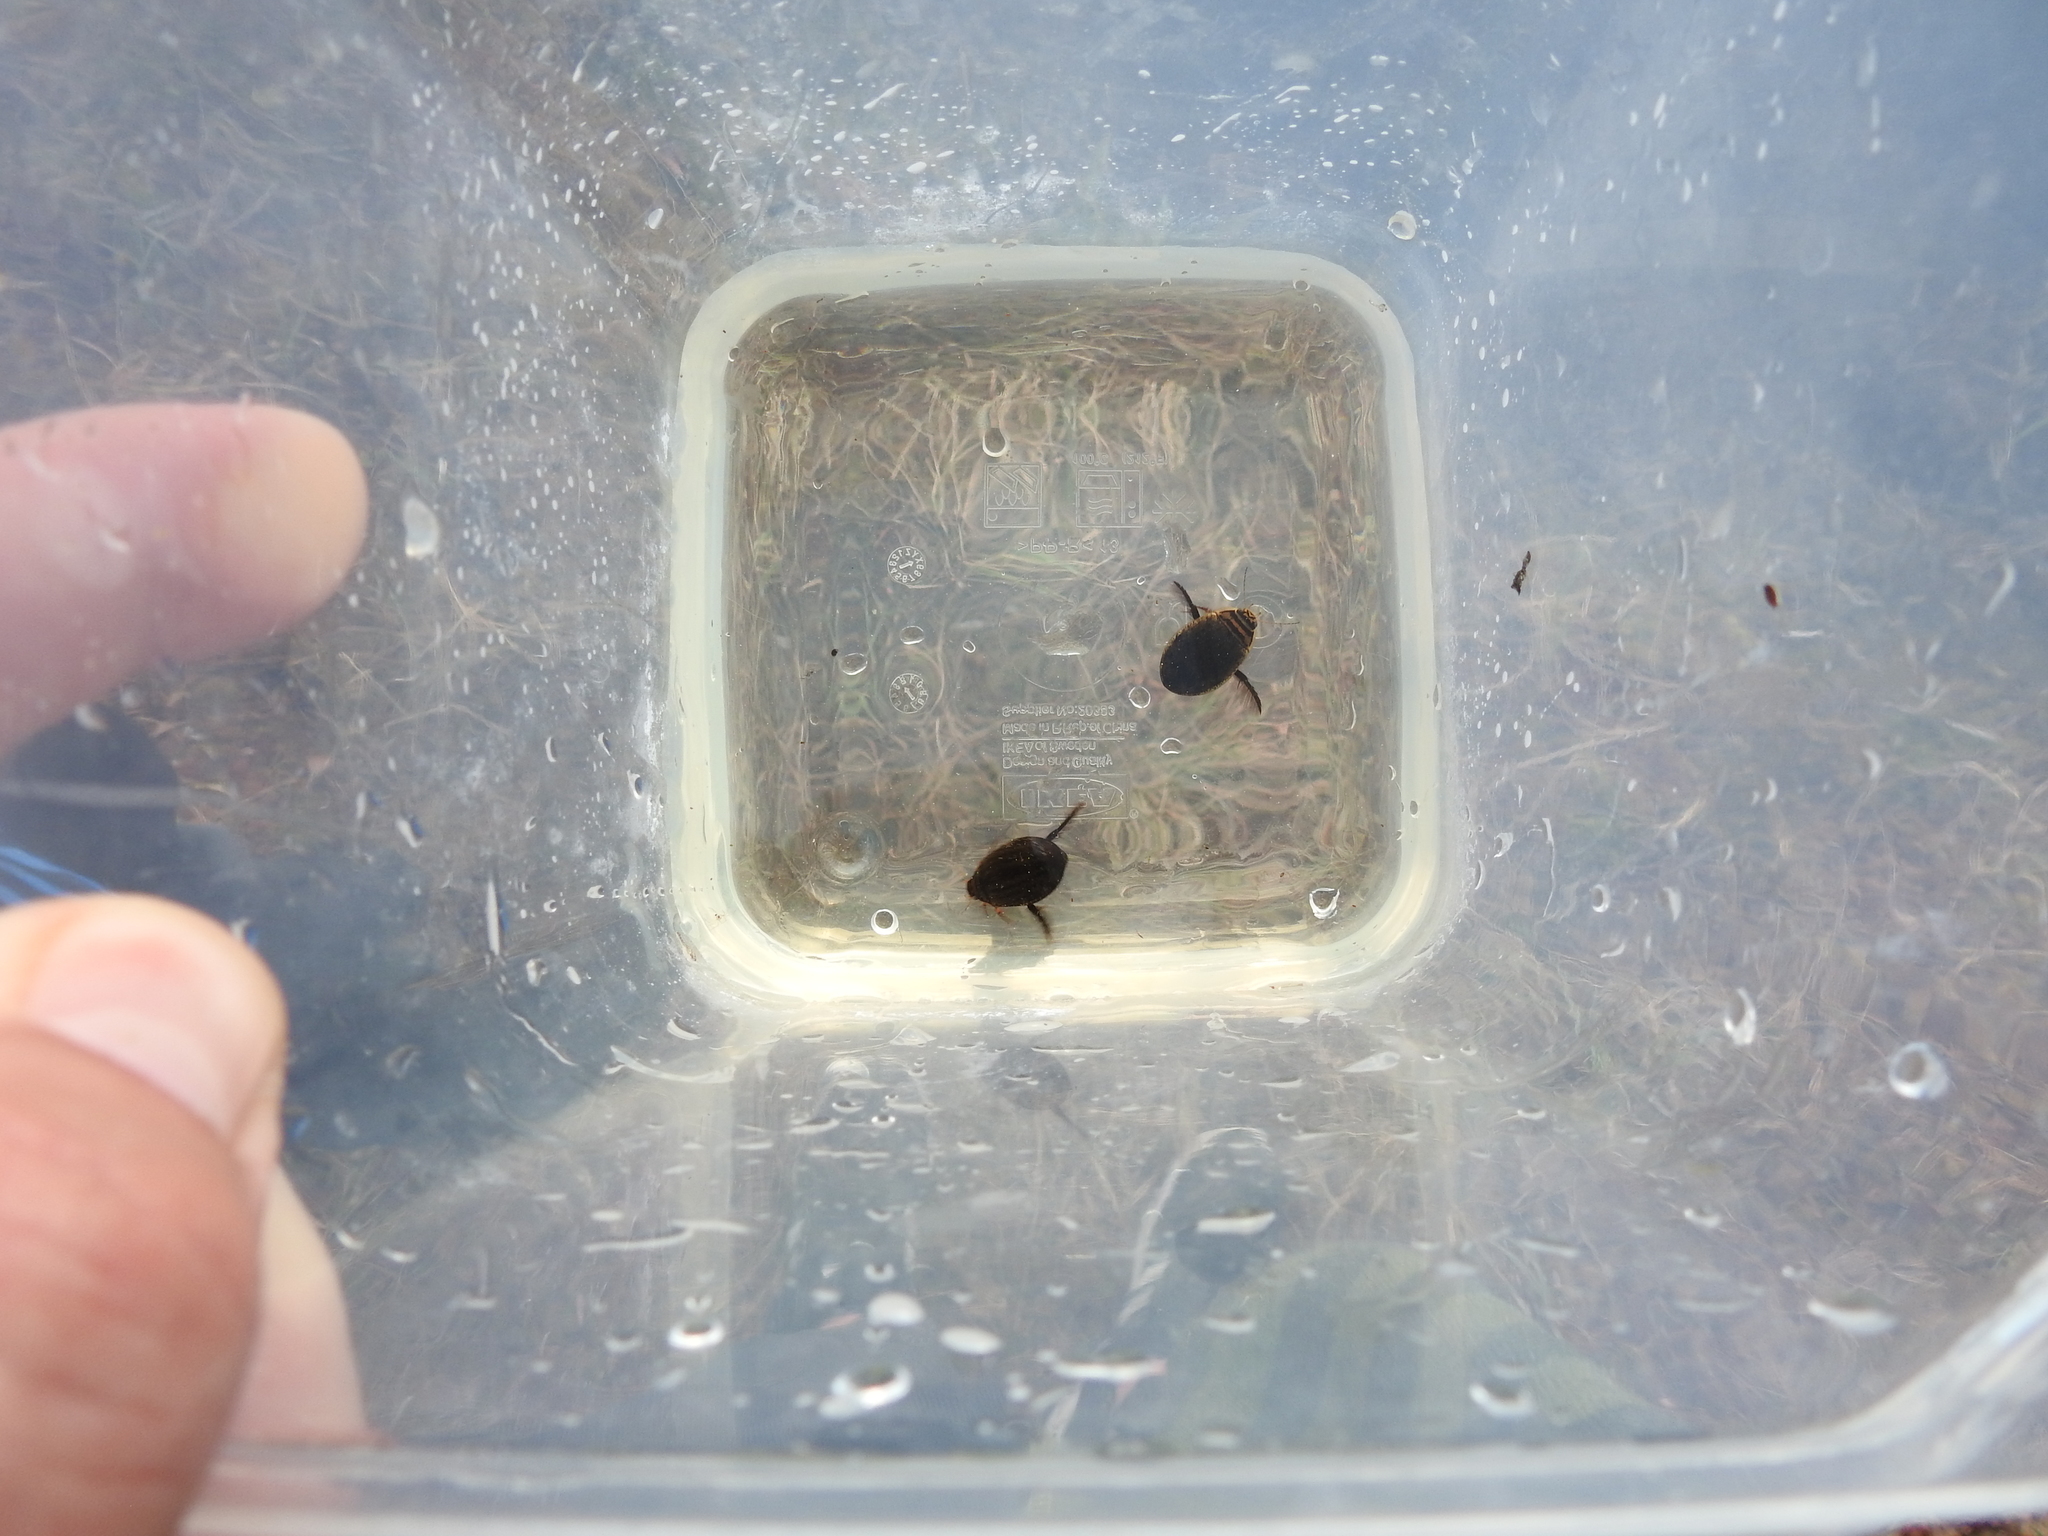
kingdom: Animalia
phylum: Arthropoda
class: Insecta
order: Coleoptera
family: Dytiscidae
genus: Acilius
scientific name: Acilius sulcatus
